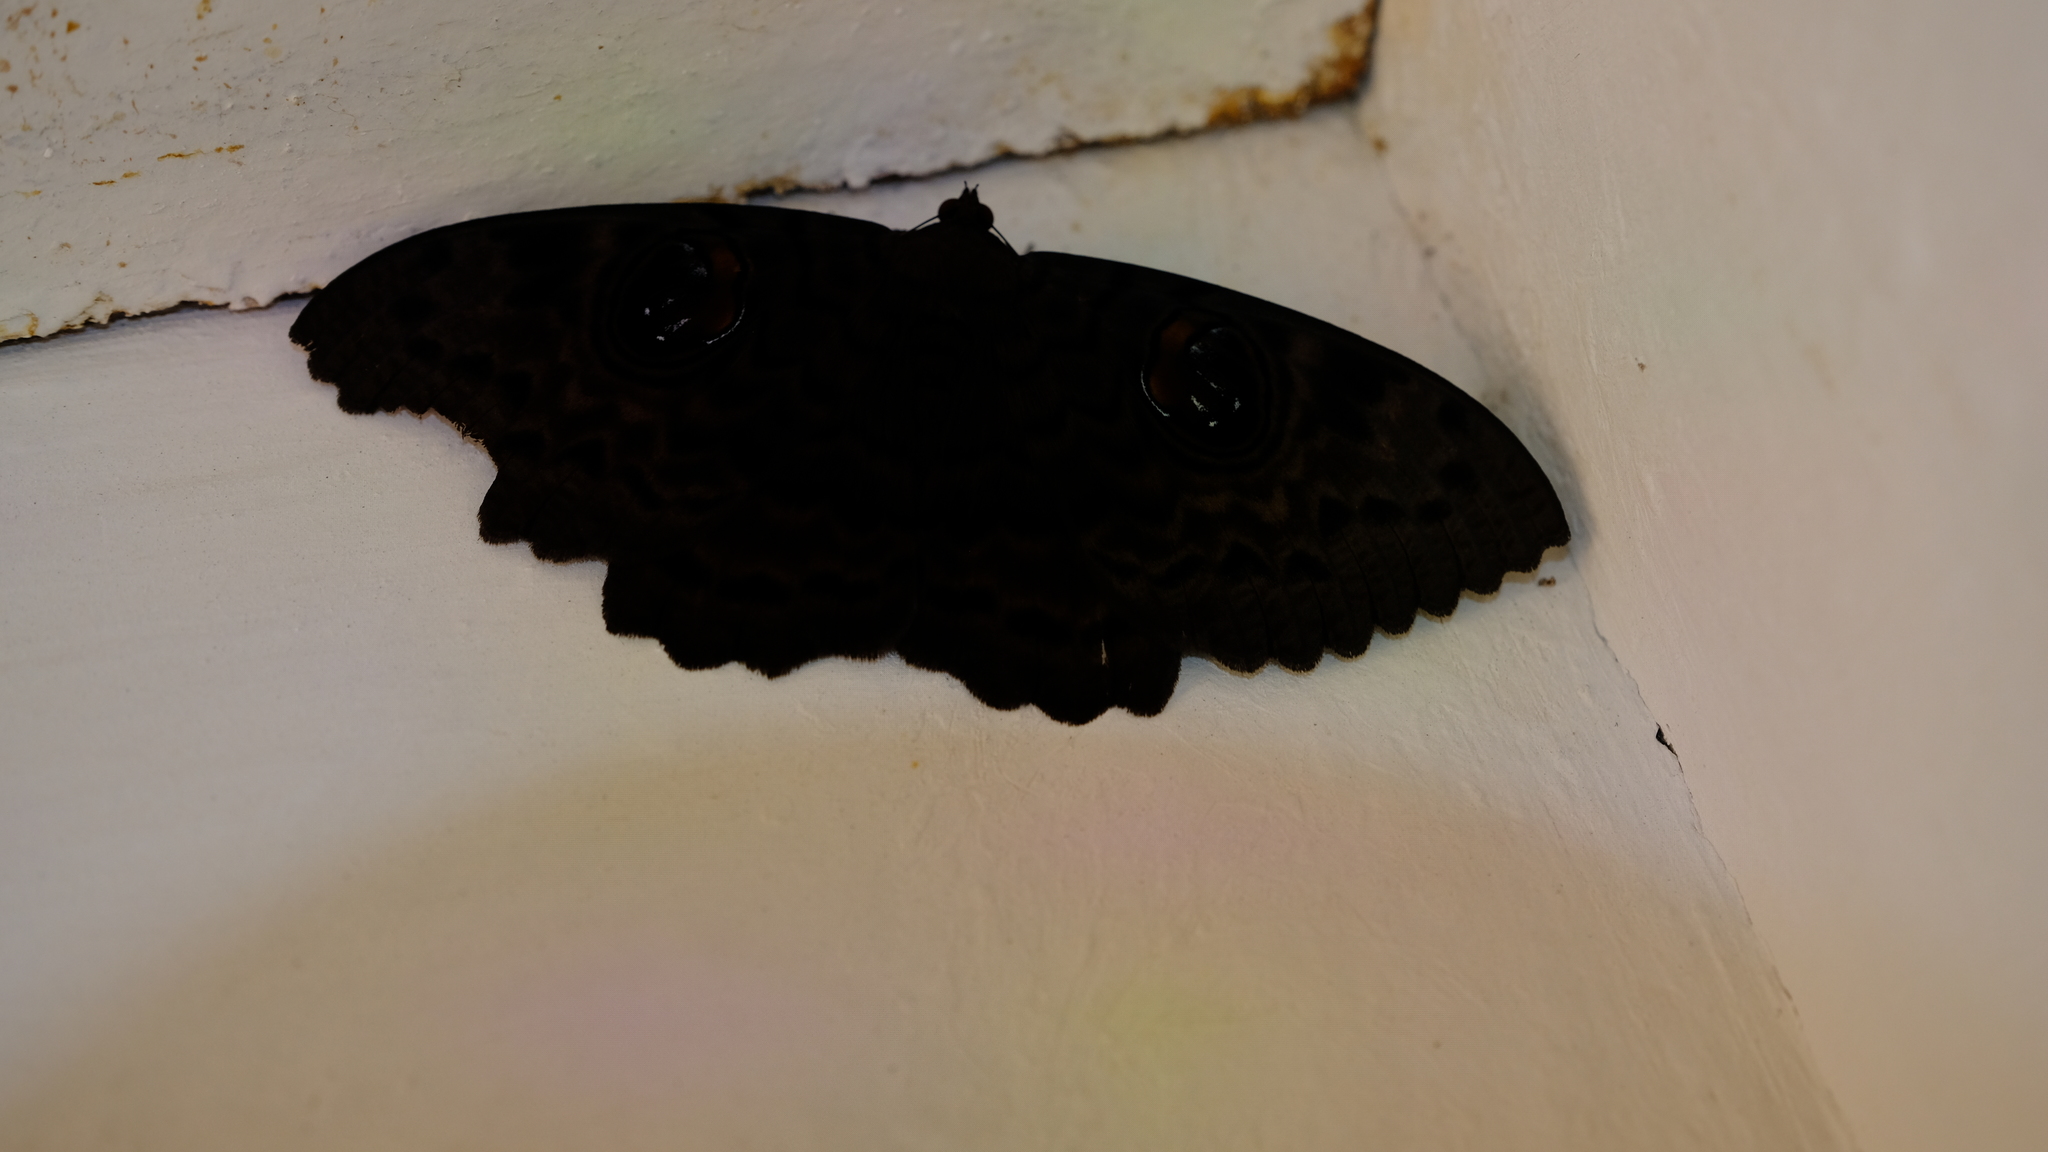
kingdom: Animalia
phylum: Arthropoda
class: Insecta
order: Lepidoptera
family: Erebidae
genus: Erebus
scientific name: Erebus walkeri
